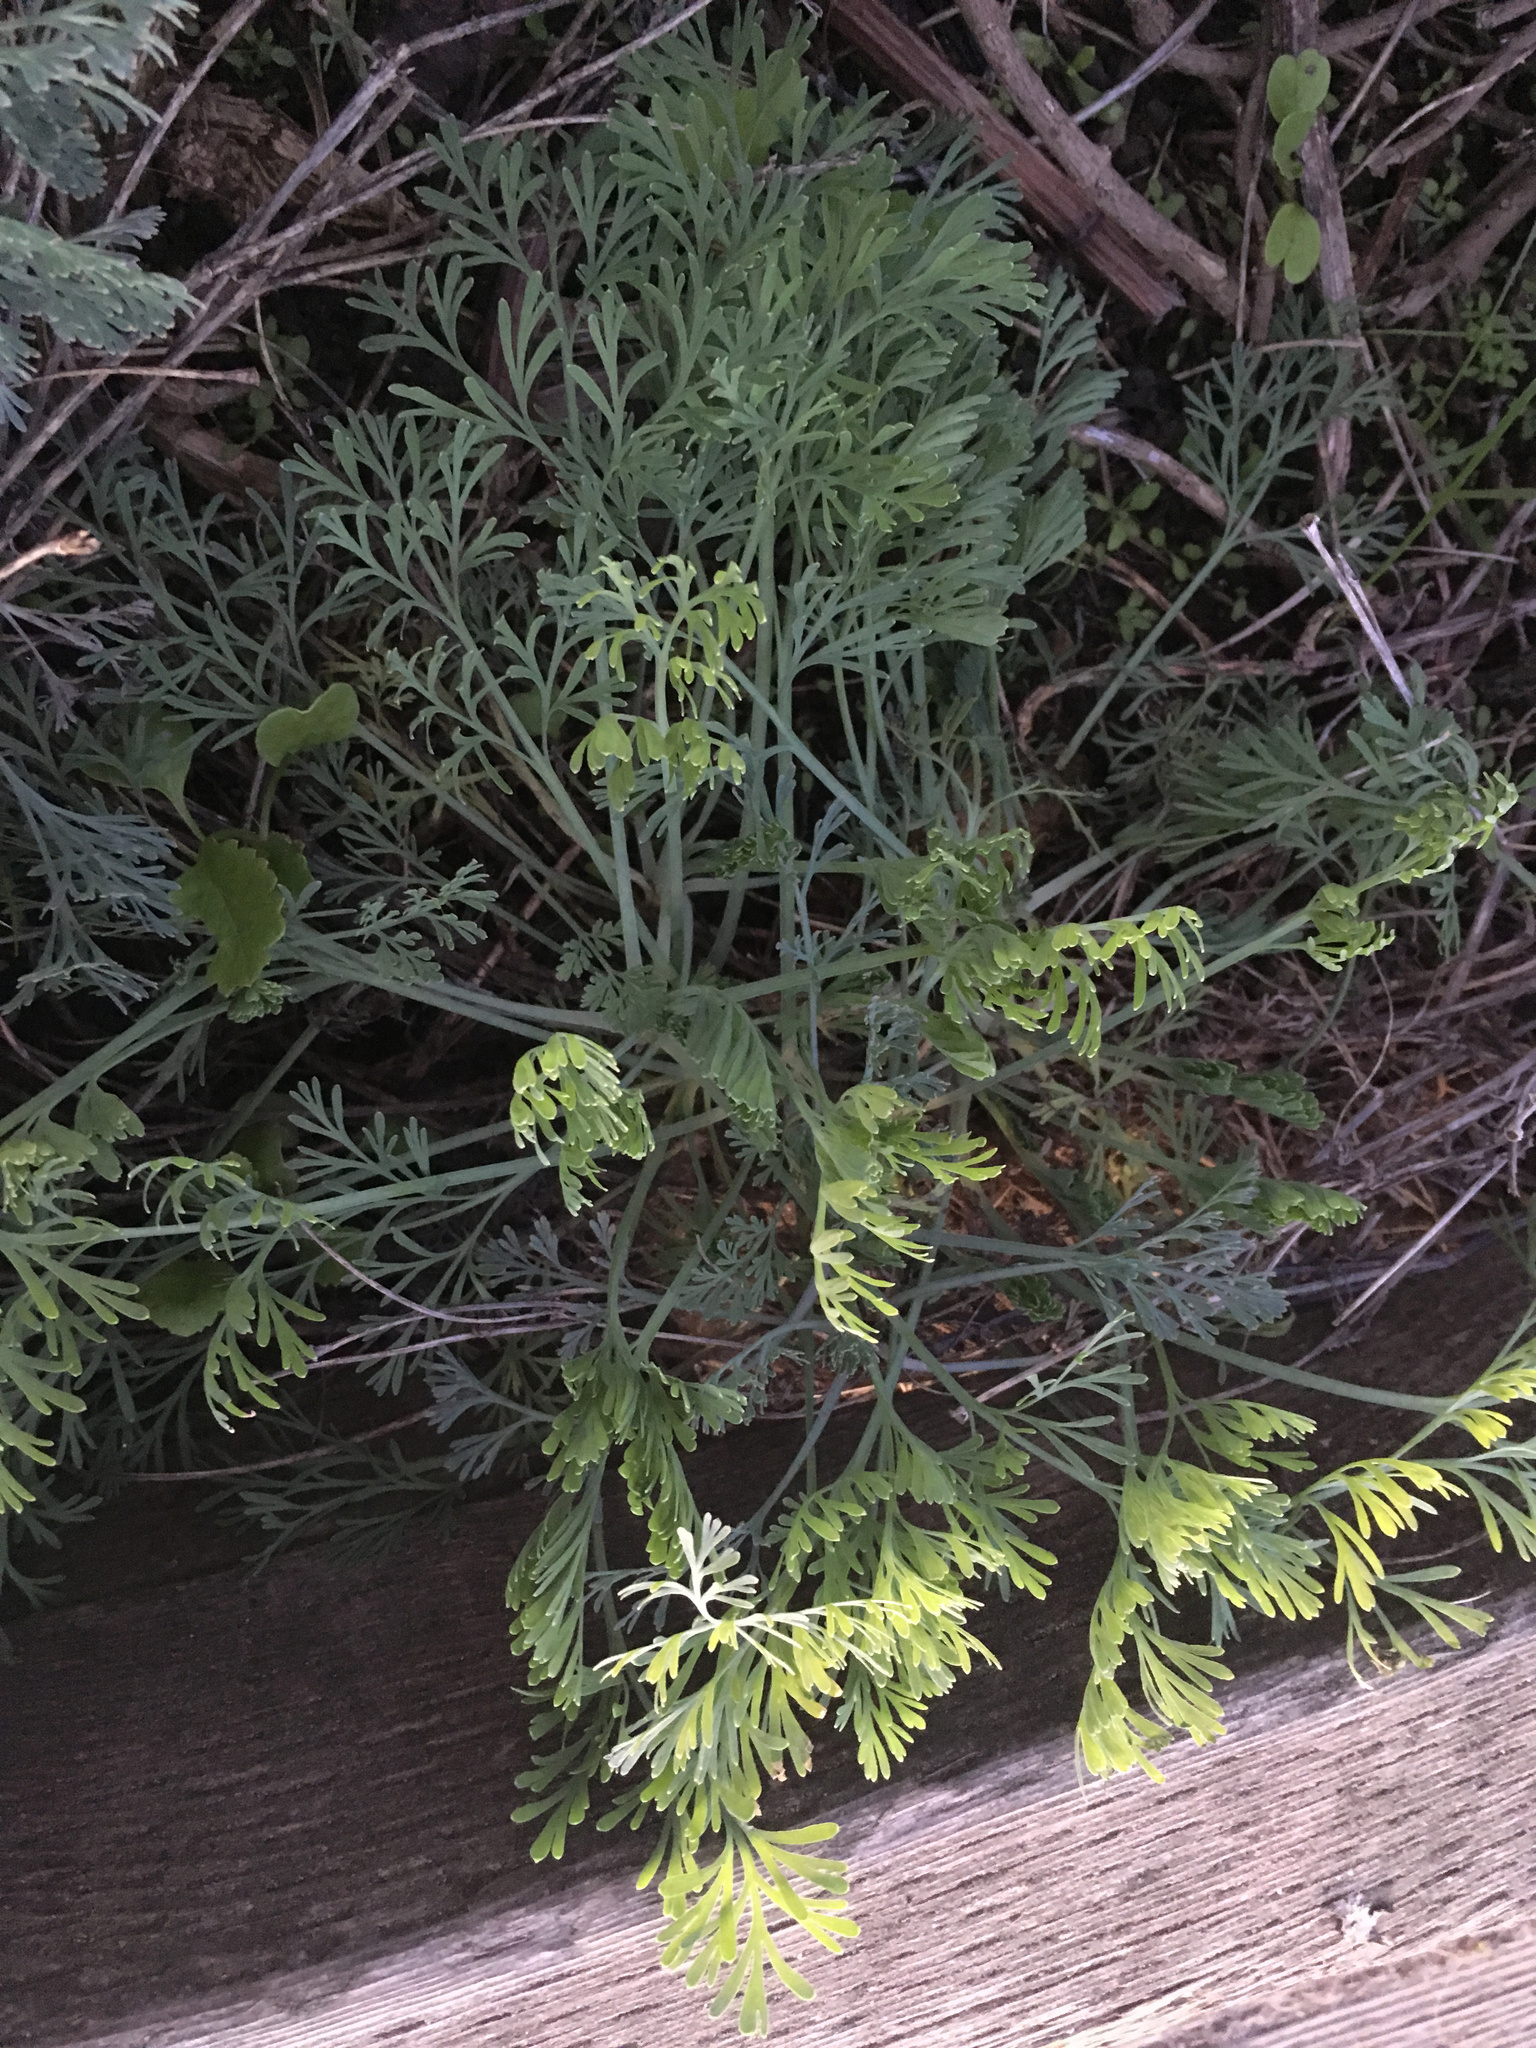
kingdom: Plantae
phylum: Tracheophyta
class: Magnoliopsida
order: Ranunculales
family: Papaveraceae
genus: Eschscholzia
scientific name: Eschscholzia californica
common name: California poppy
